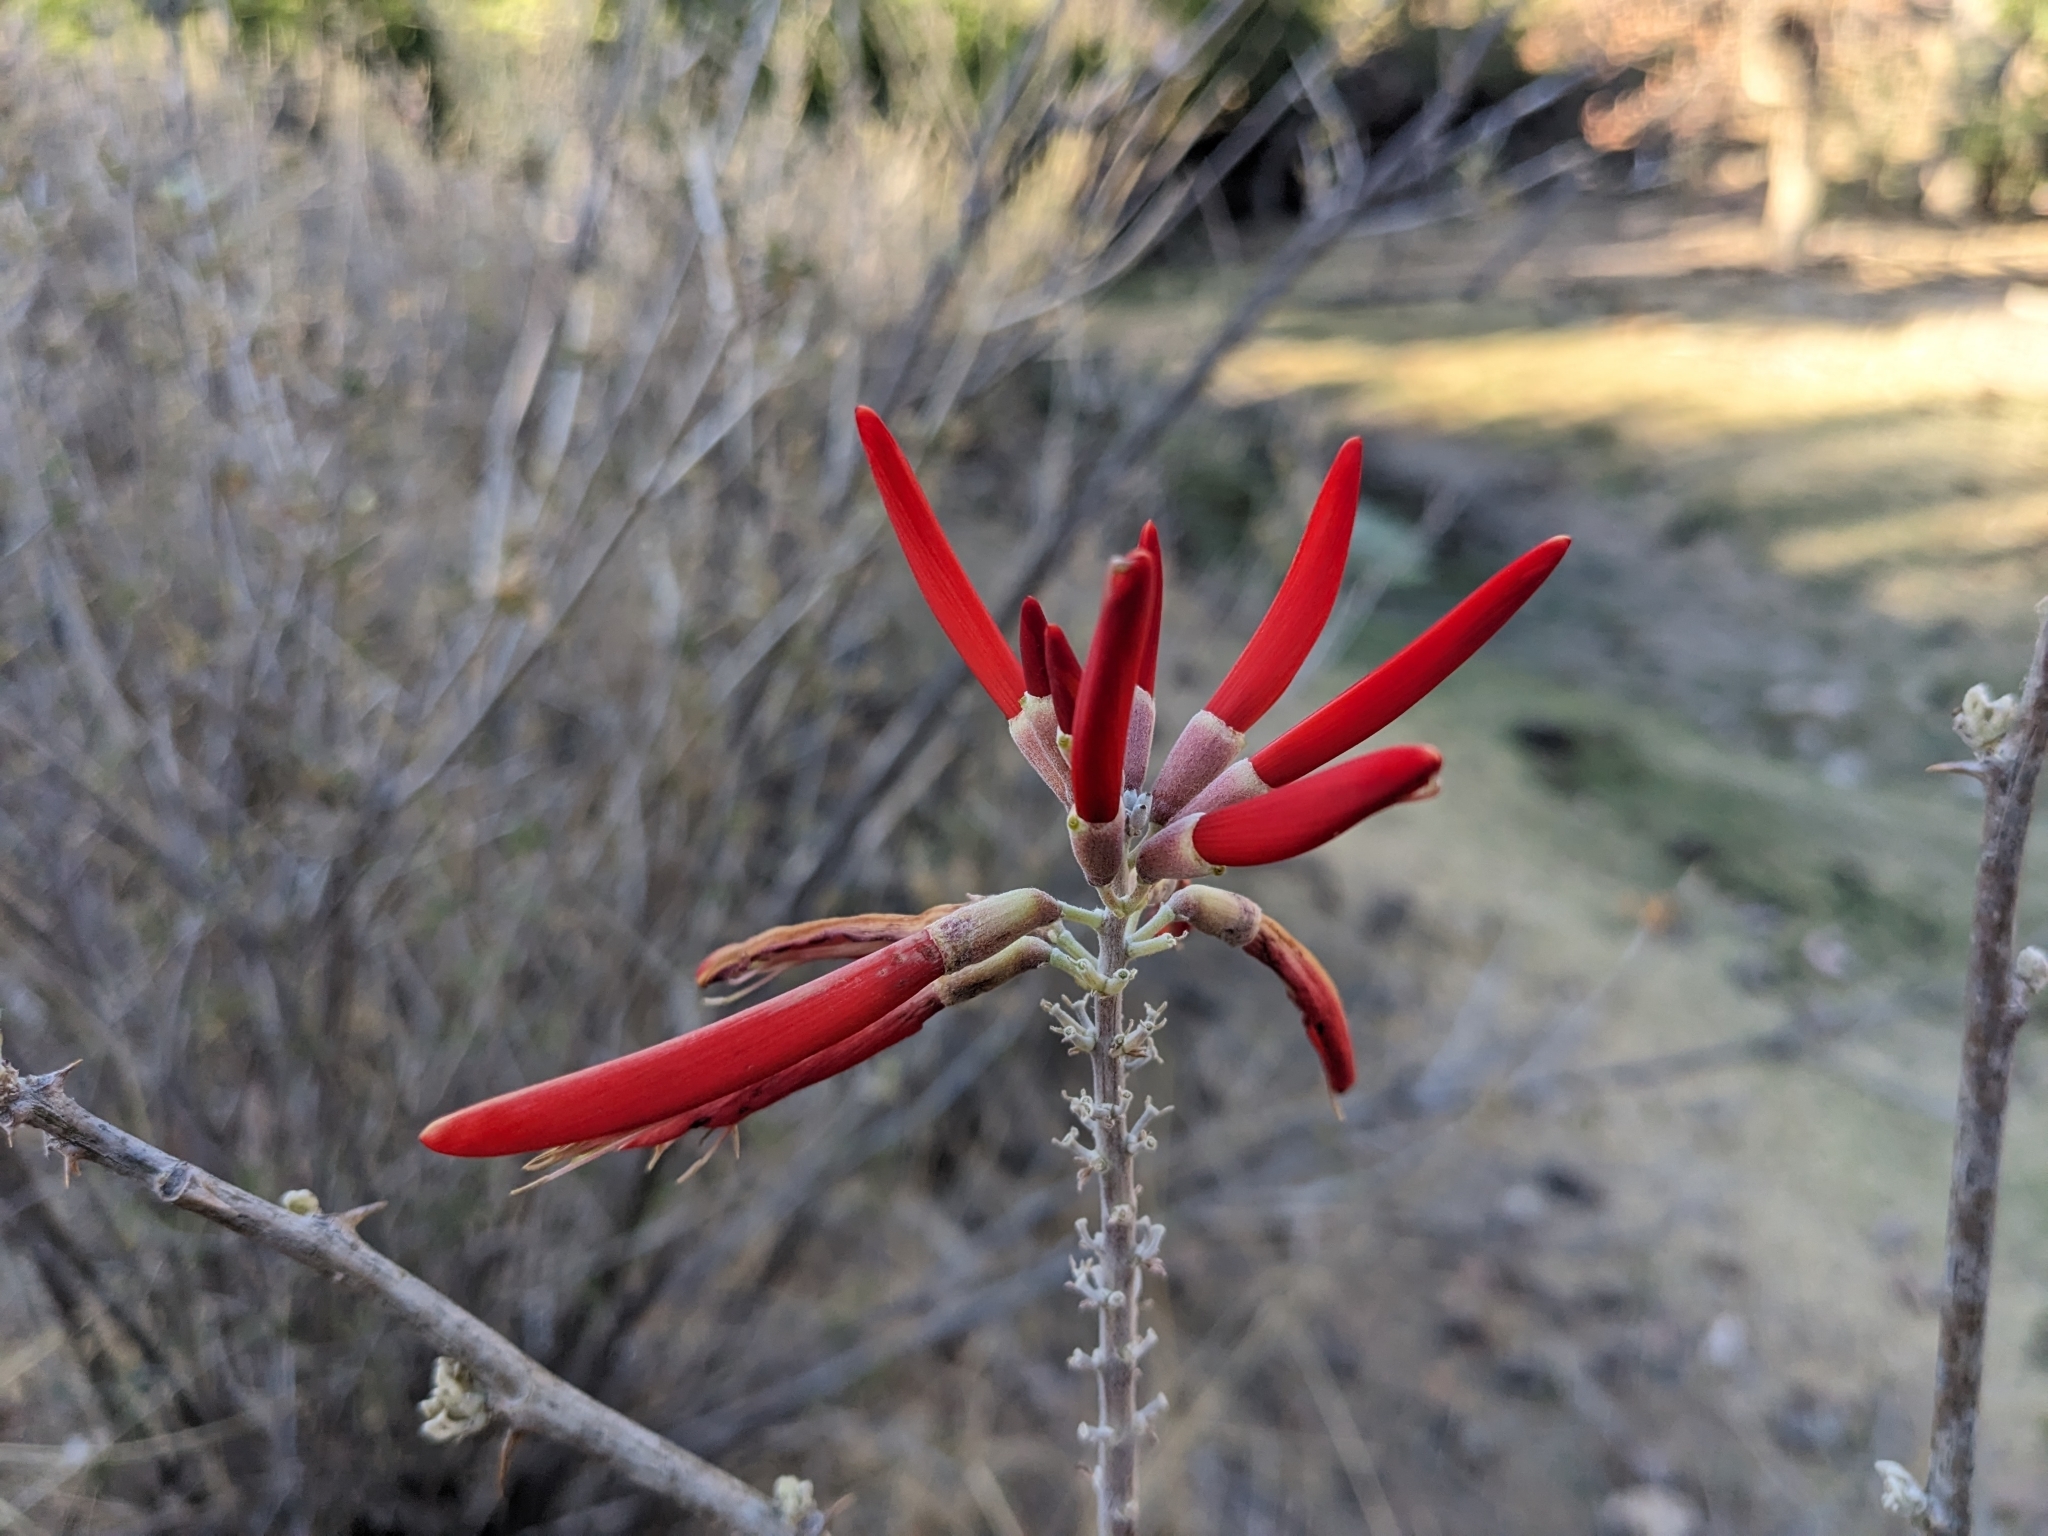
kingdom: Plantae
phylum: Tracheophyta
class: Magnoliopsida
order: Fabales
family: Fabaceae
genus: Erythrina
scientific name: Erythrina flabelliformis
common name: Chilicote
